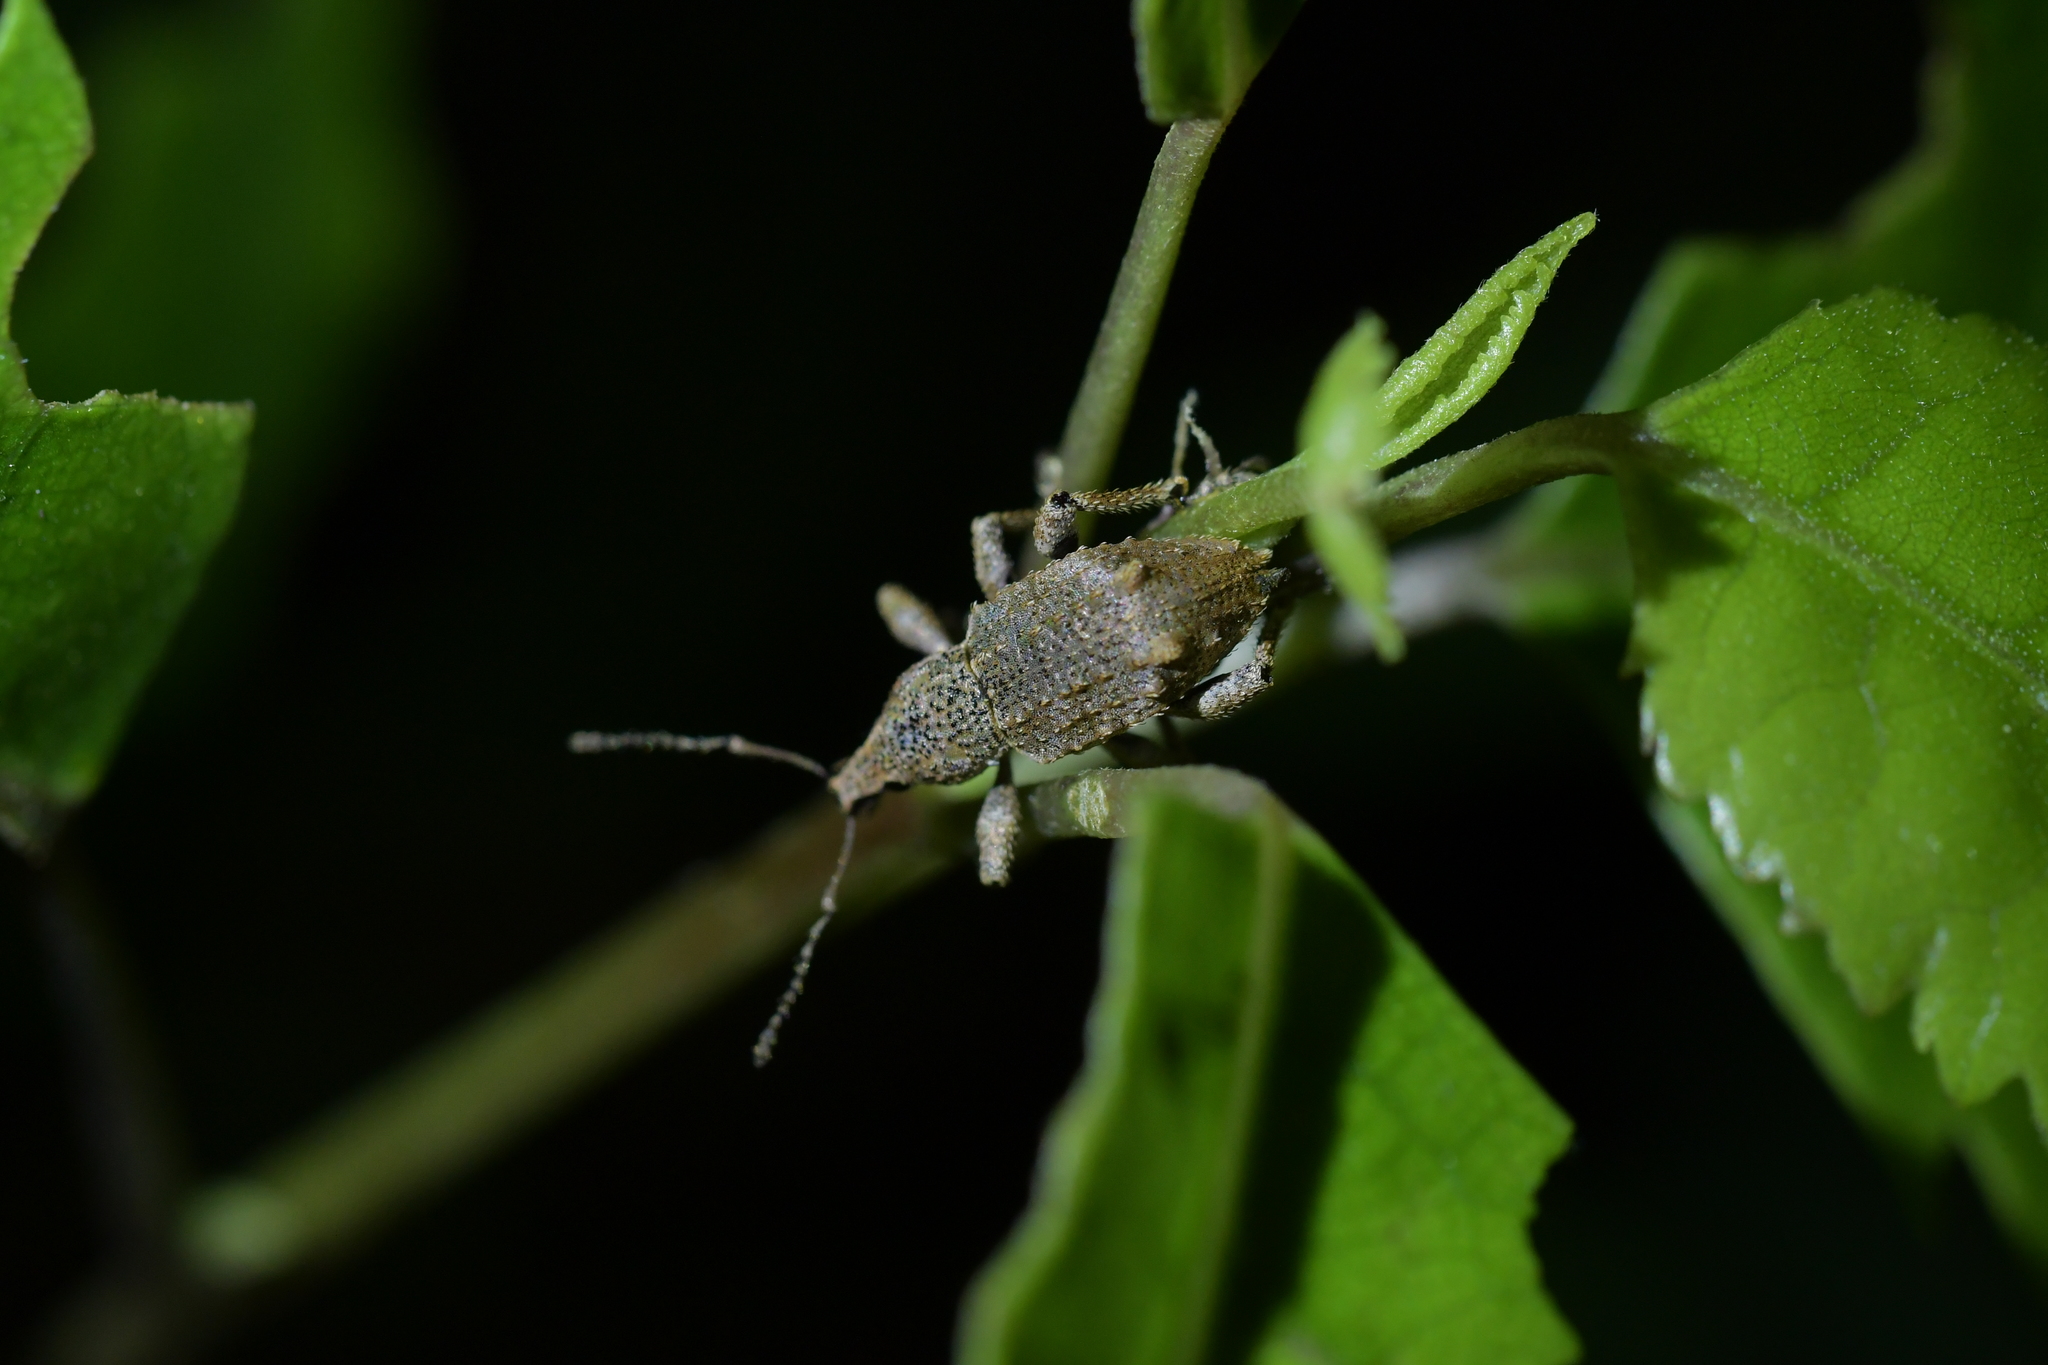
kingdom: Animalia
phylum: Arthropoda
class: Insecta
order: Coleoptera
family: Curculionidae
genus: Catoptes
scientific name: Catoptes binodis
